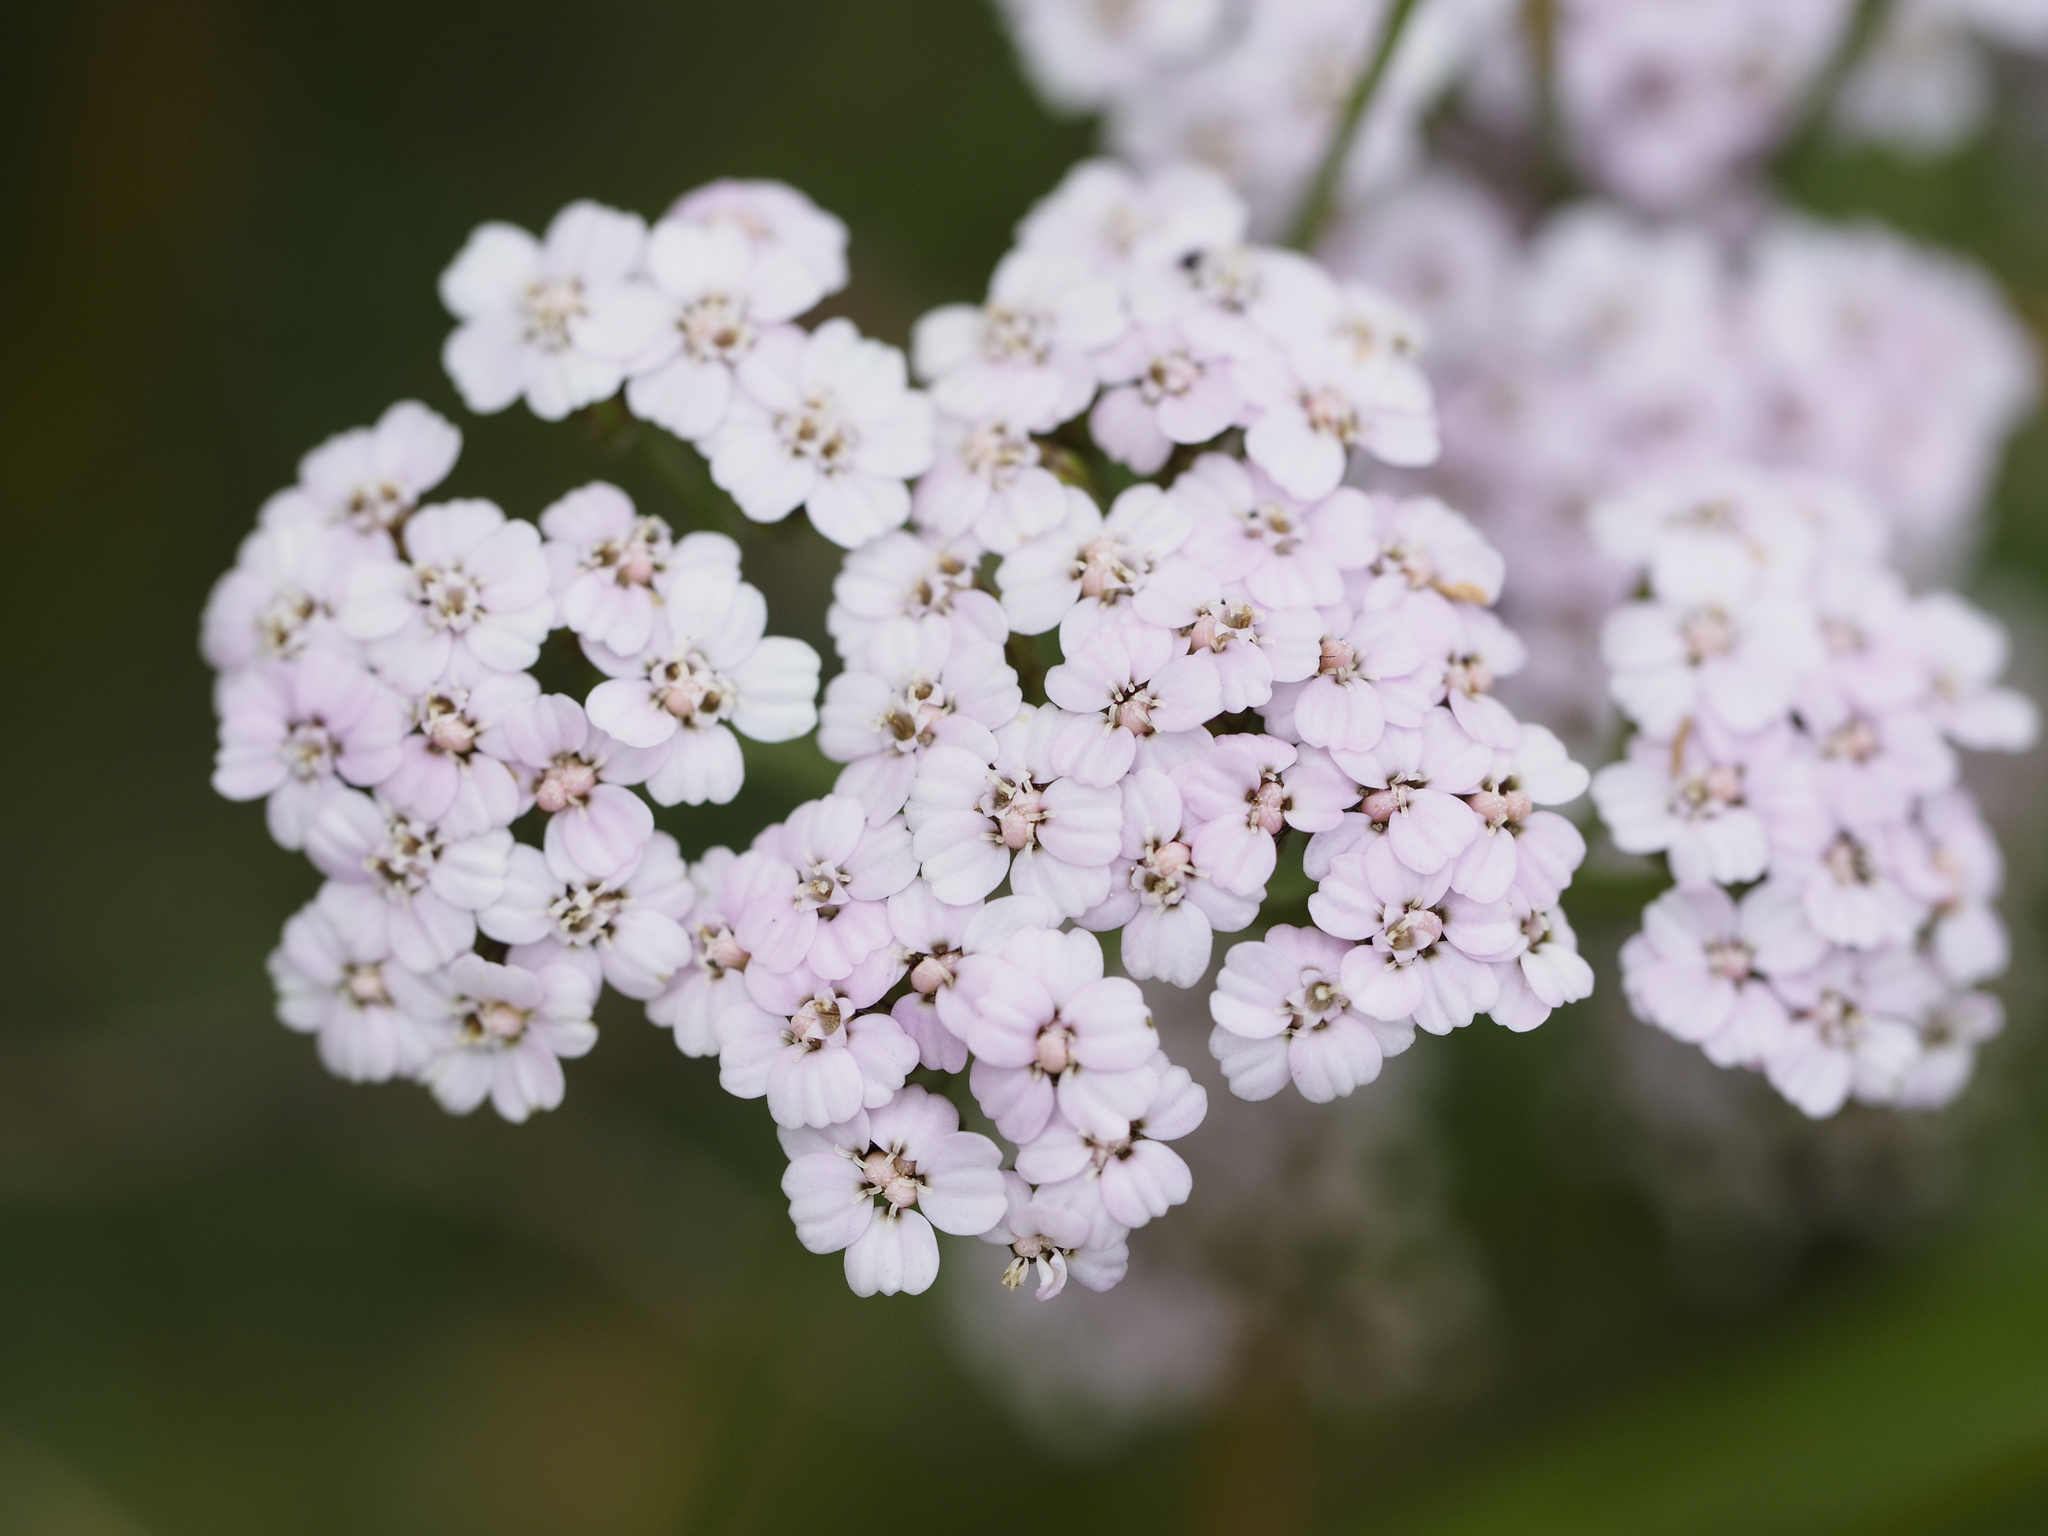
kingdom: Plantae
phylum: Tracheophyta
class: Magnoliopsida
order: Asterales
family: Asteraceae
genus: Achillea
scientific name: Achillea millefolium
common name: Yarrow
